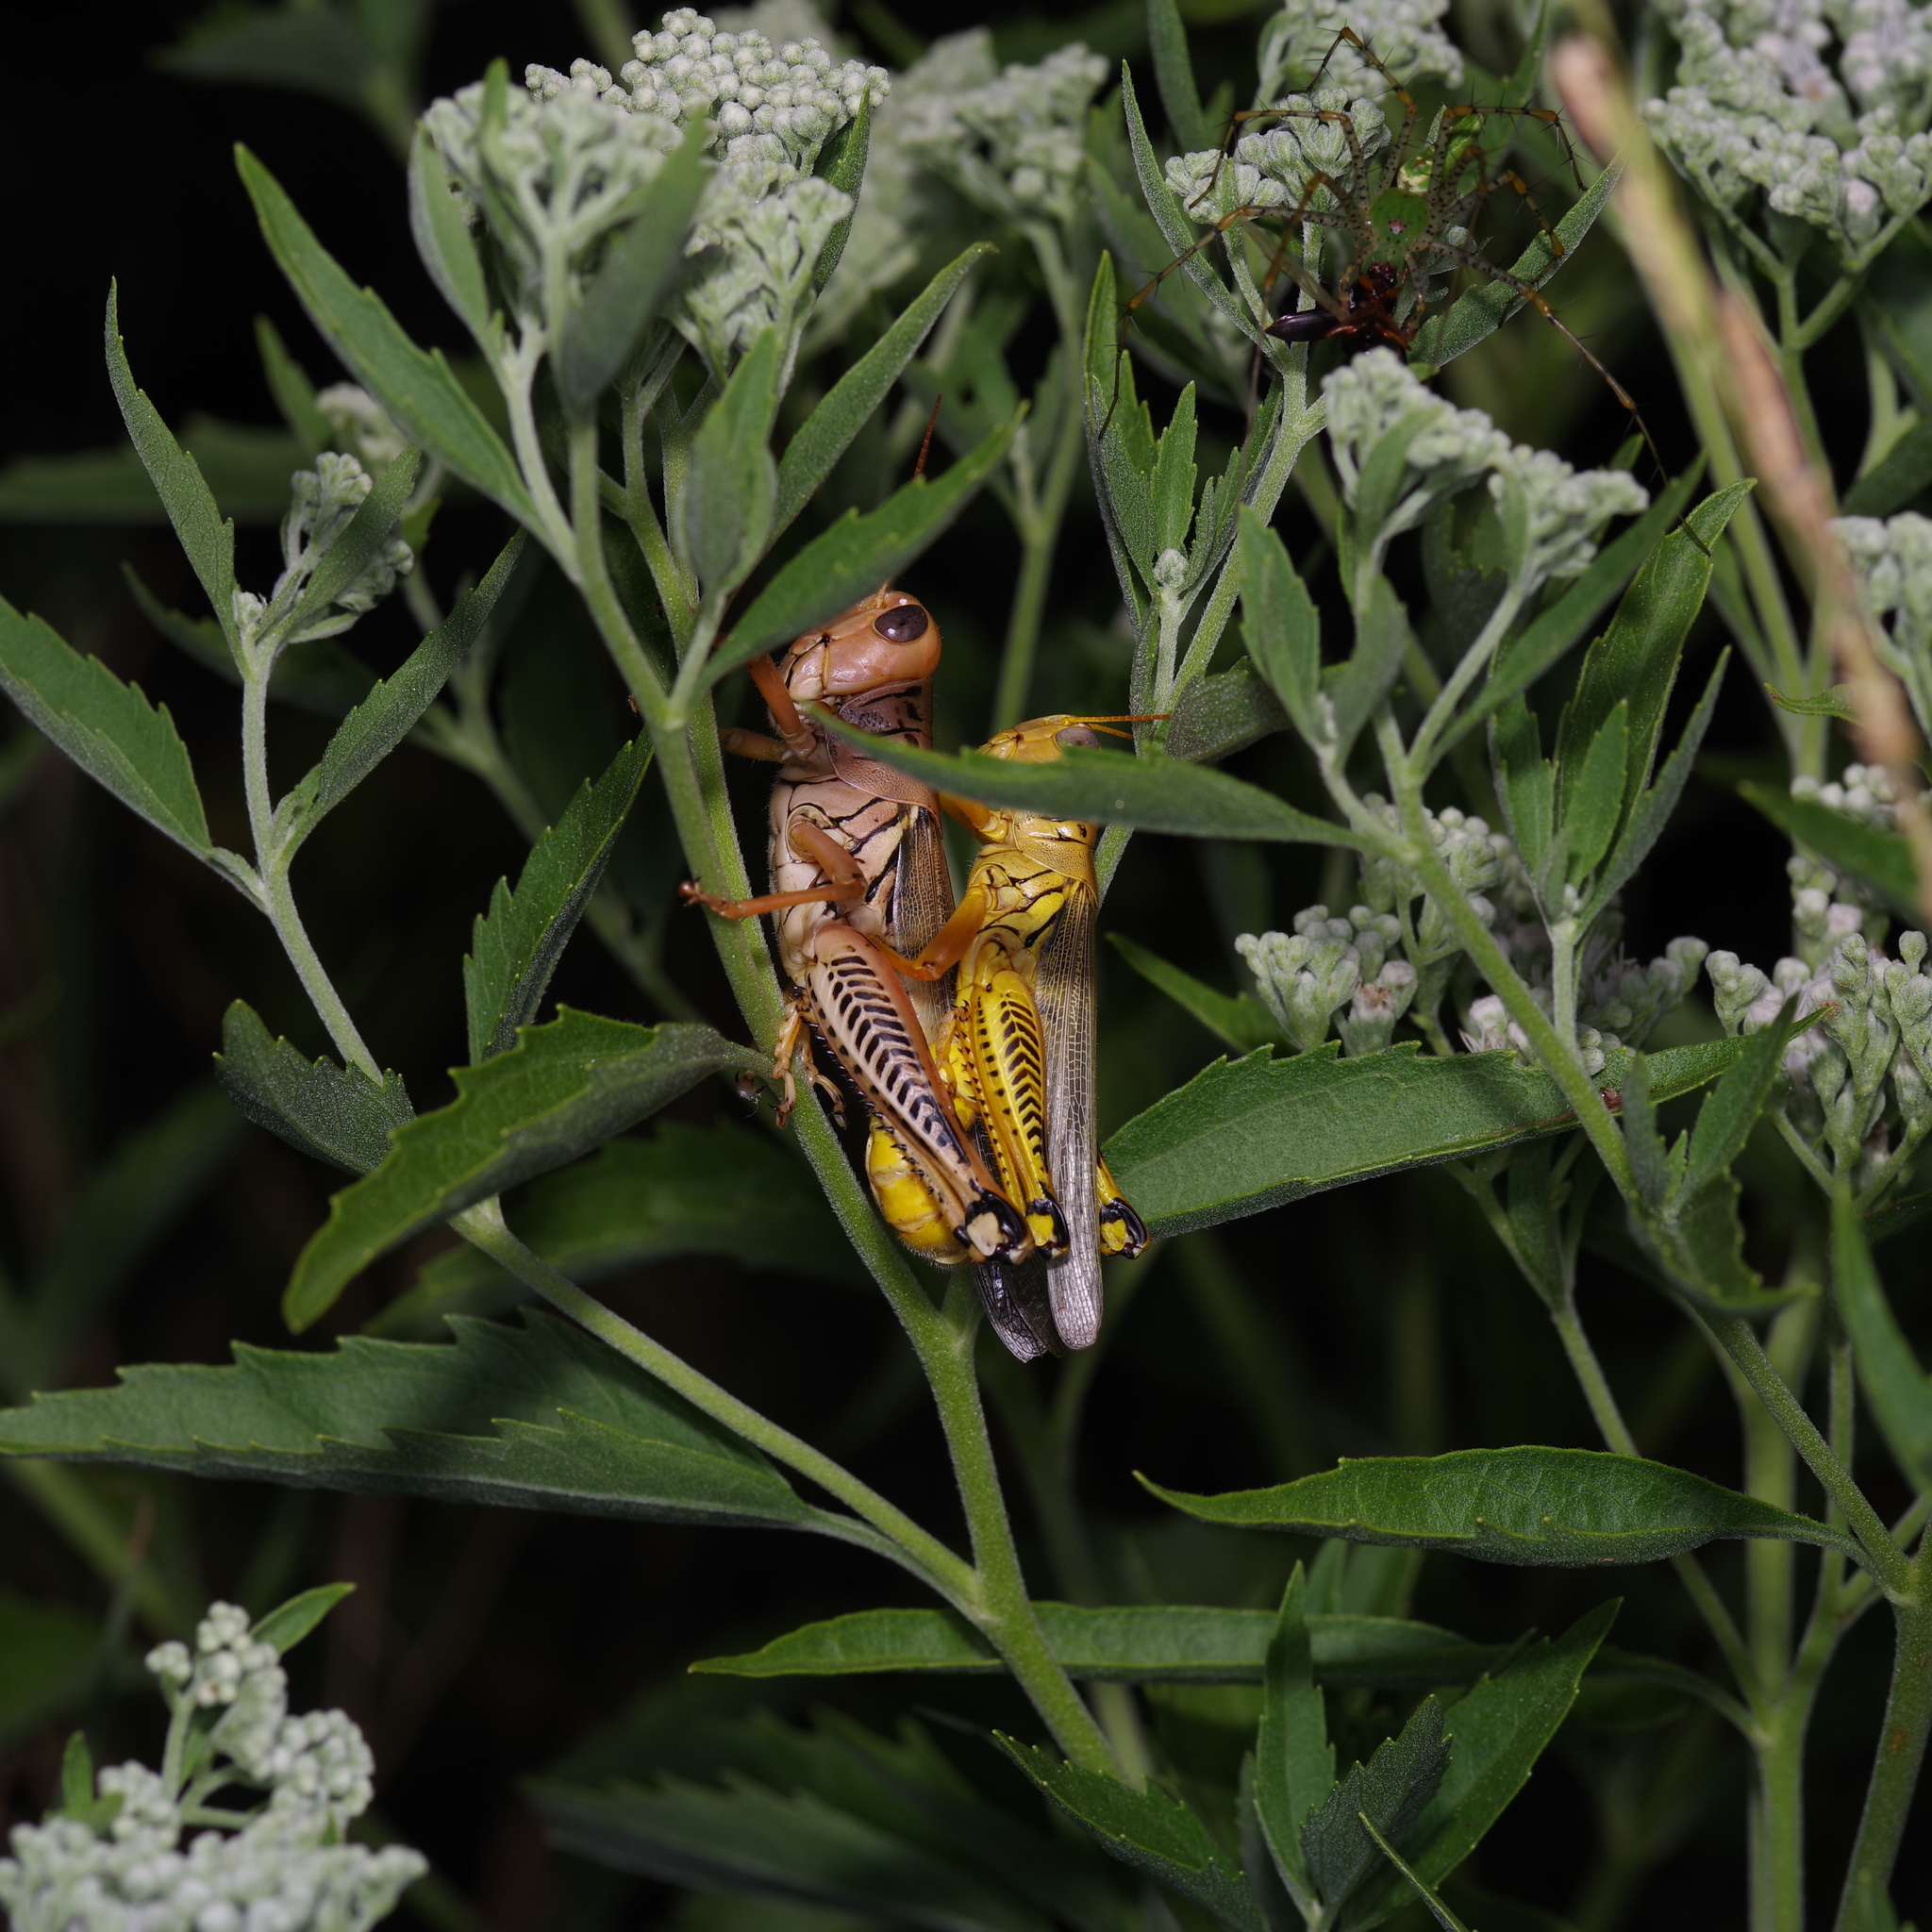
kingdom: Animalia
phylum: Arthropoda
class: Insecta
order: Orthoptera
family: Acrididae
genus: Melanoplus
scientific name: Melanoplus differentialis
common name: Differential grasshopper
